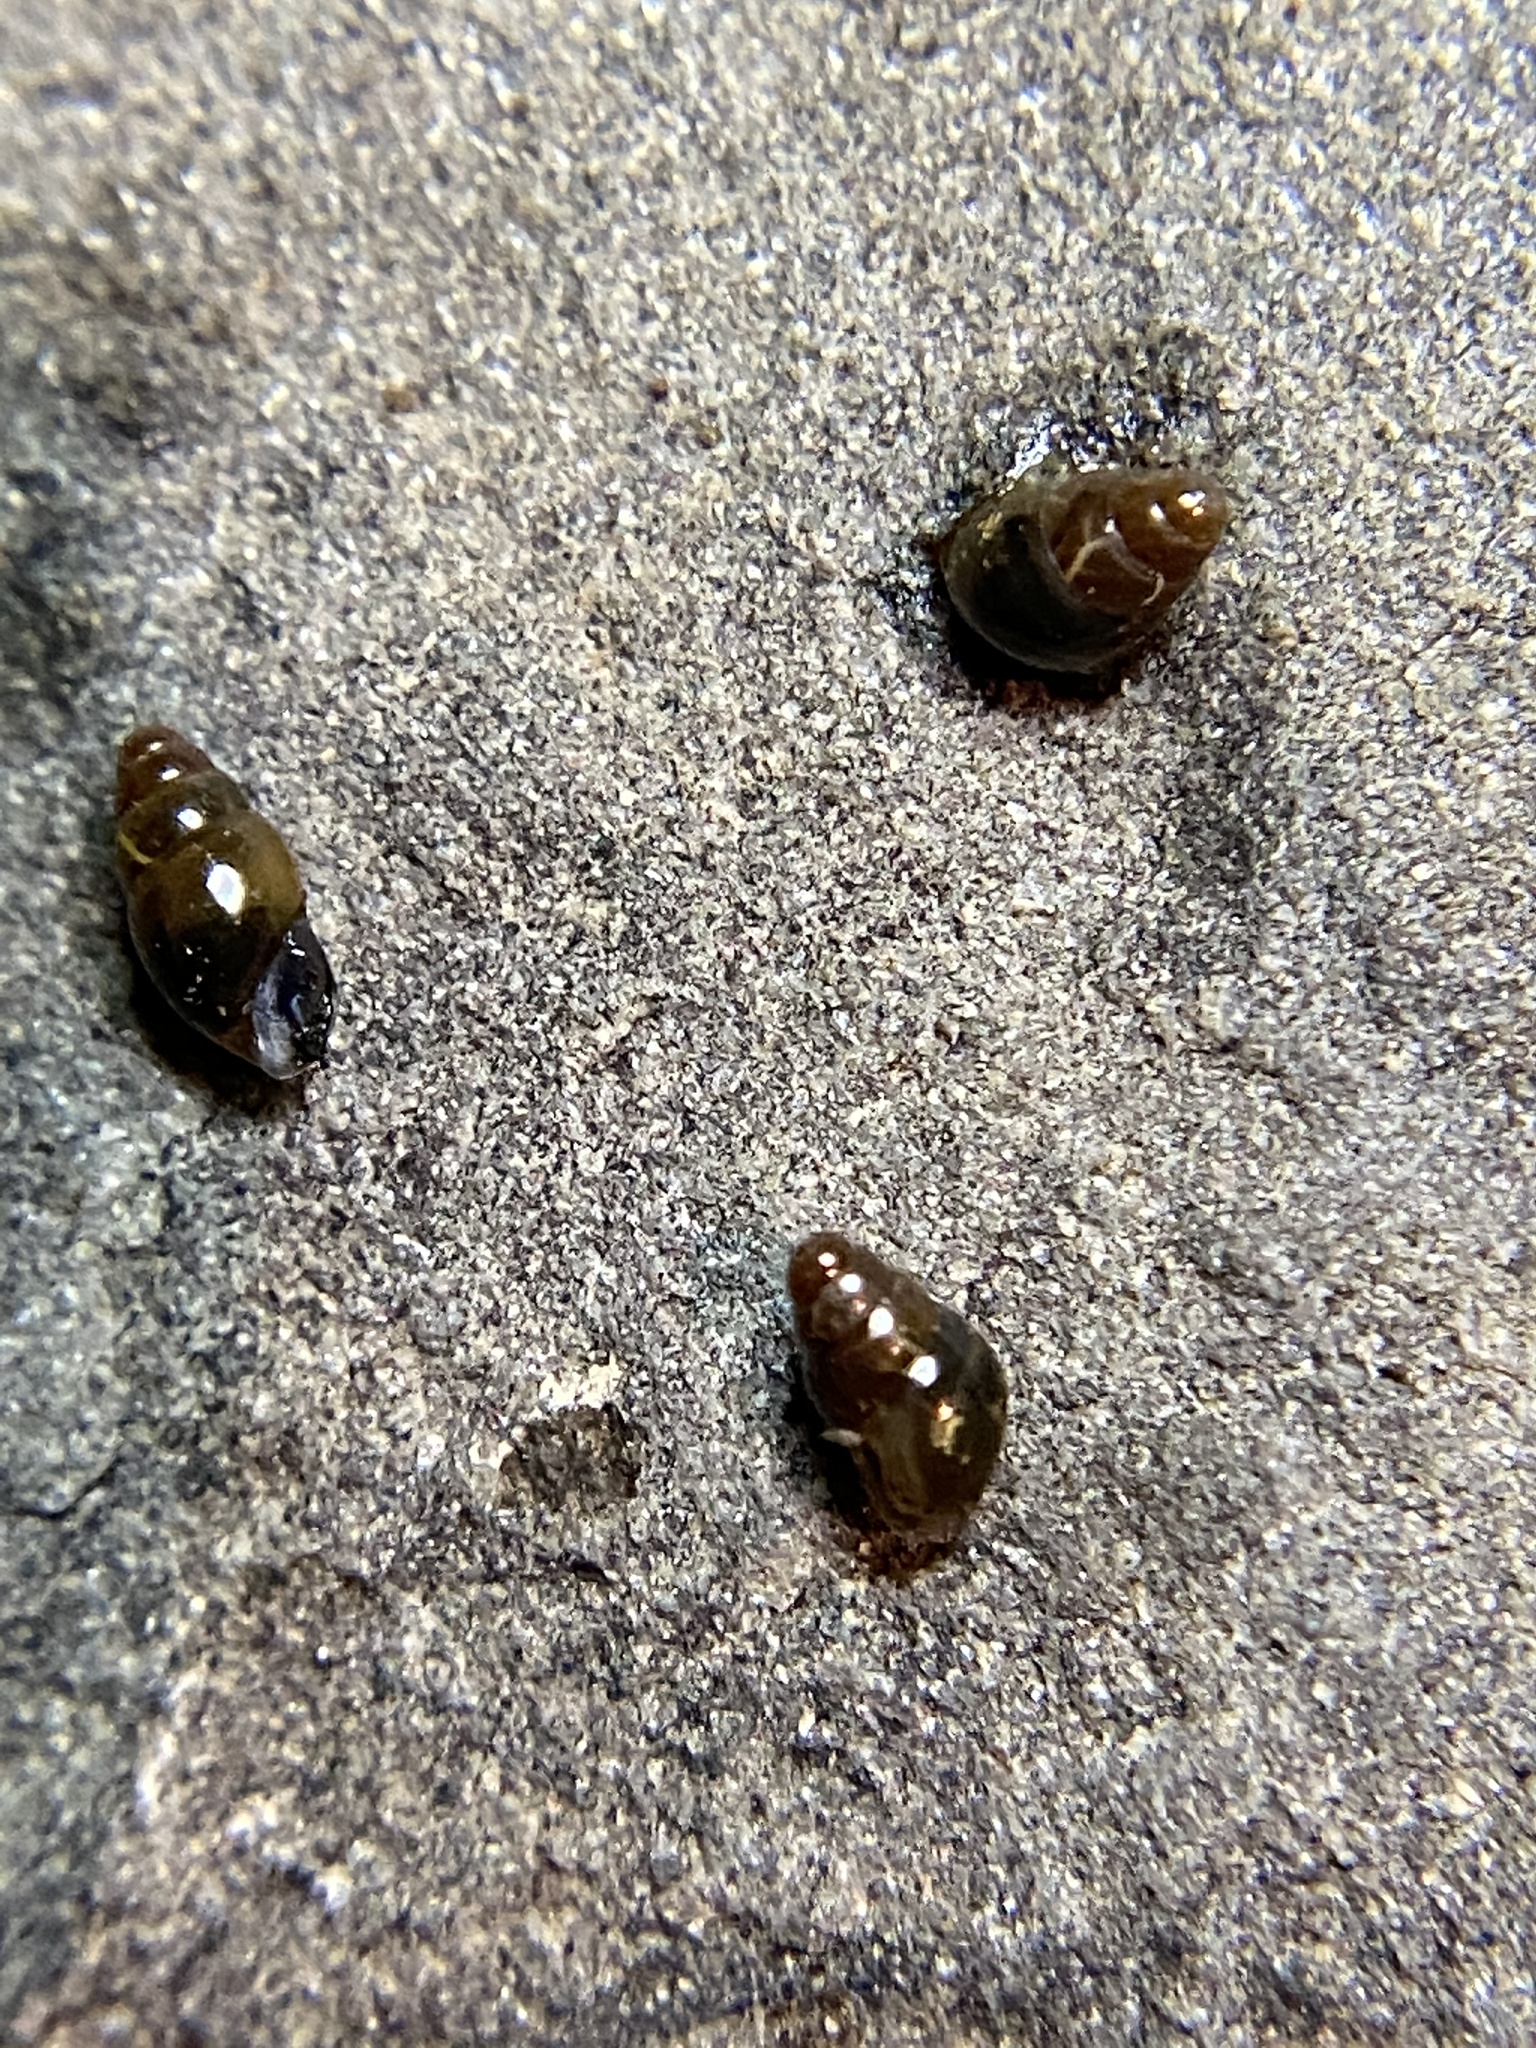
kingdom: Animalia
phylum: Mollusca
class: Gastropoda
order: Stylommatophora
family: Cochlicopidae
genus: Cochlicopa
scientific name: Cochlicopa lubrica
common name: Glossy pillar snail
